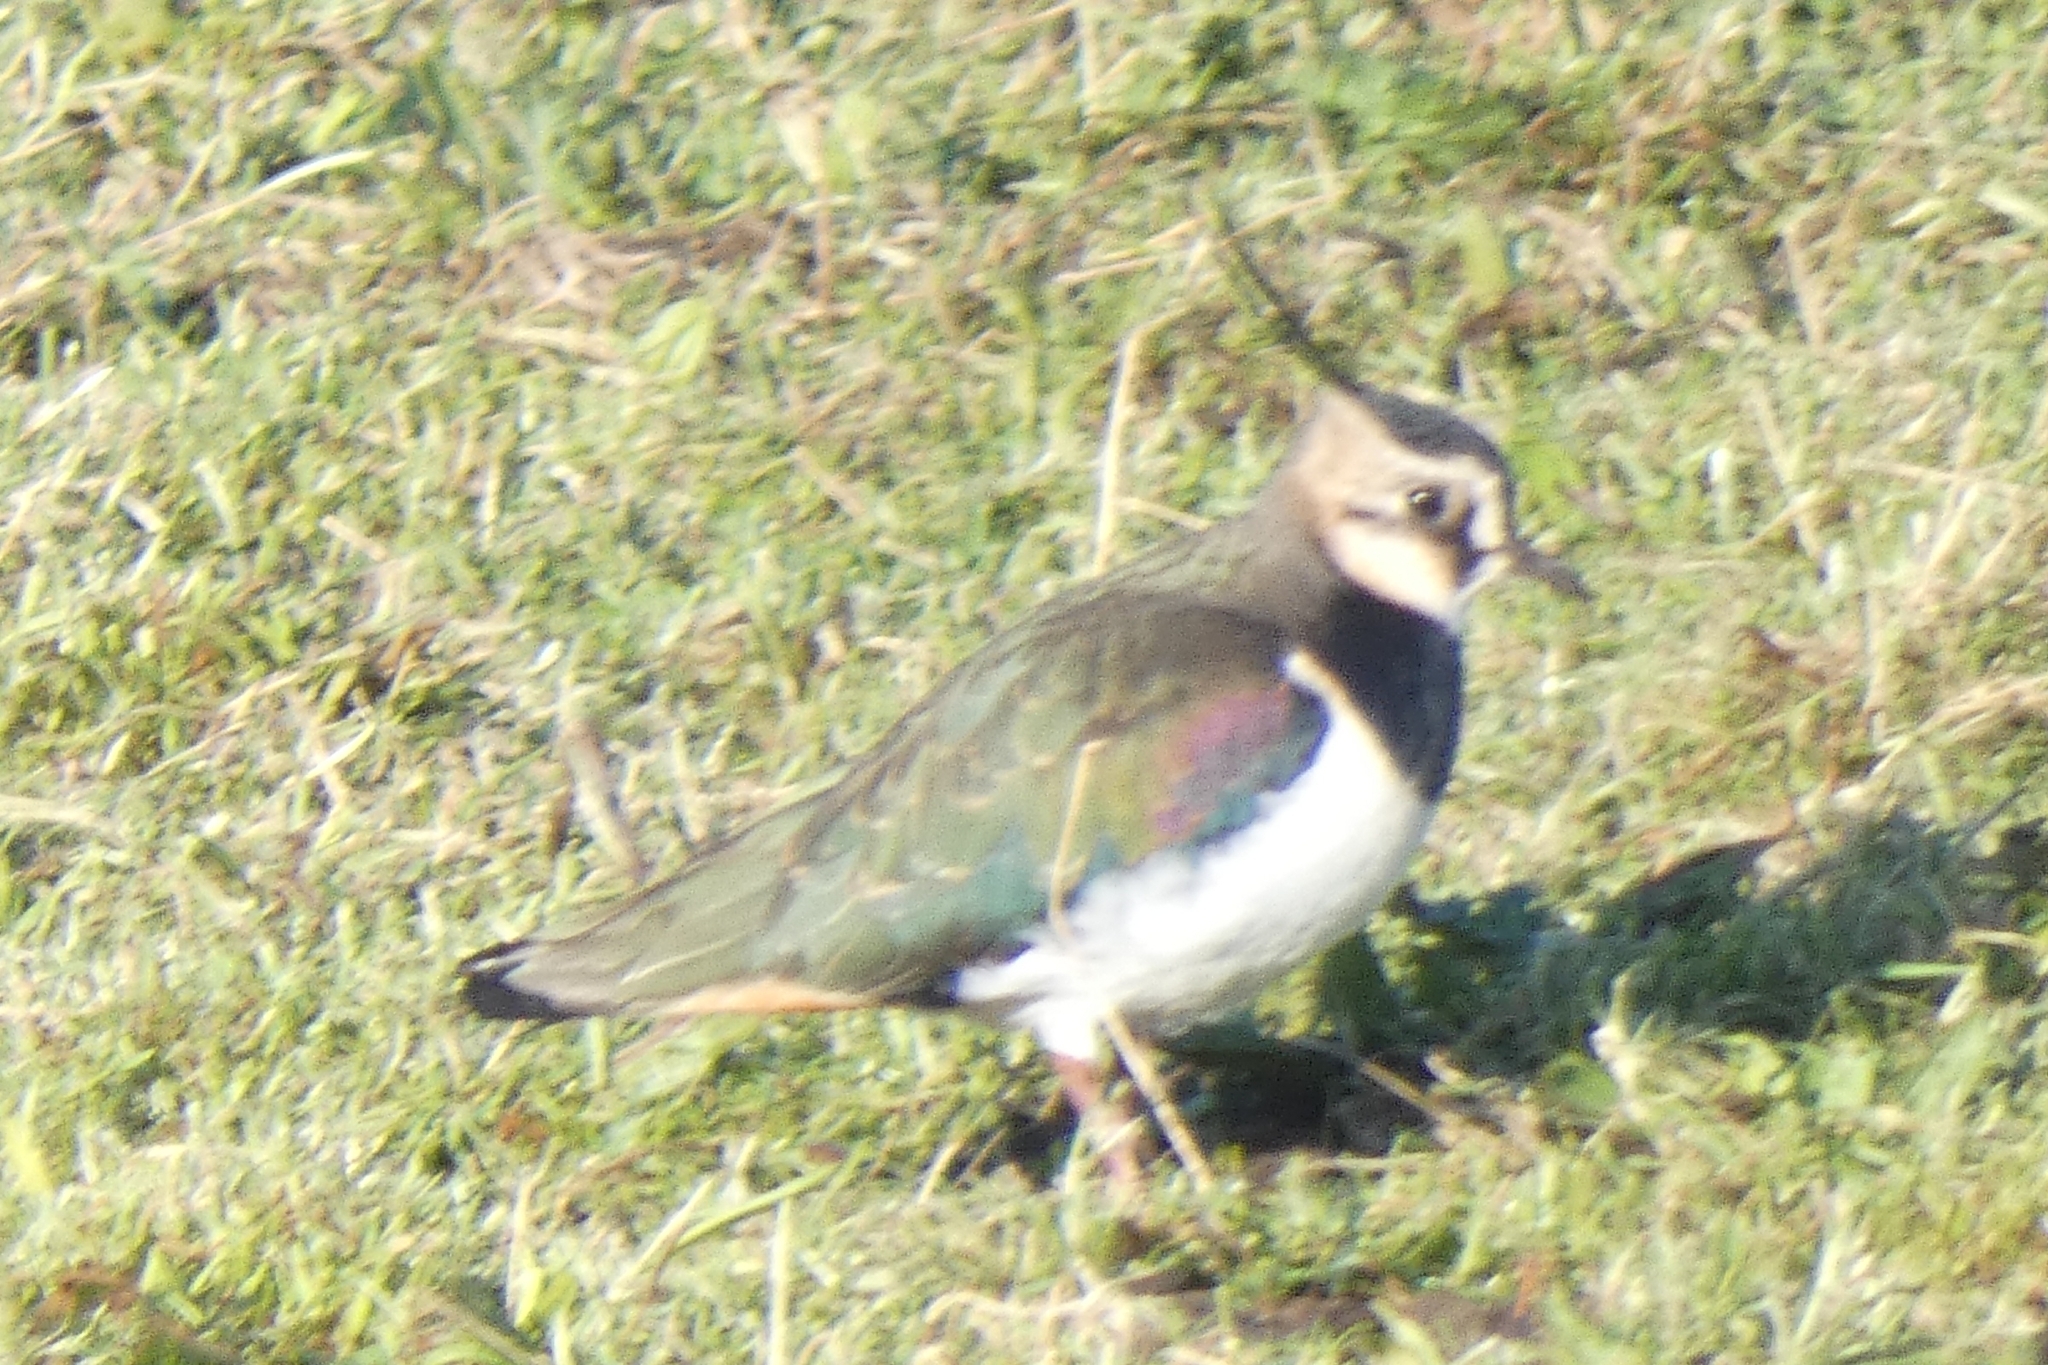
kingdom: Animalia
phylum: Chordata
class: Aves
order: Charadriiformes
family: Charadriidae
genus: Vanellus
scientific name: Vanellus vanellus
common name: Northern lapwing
